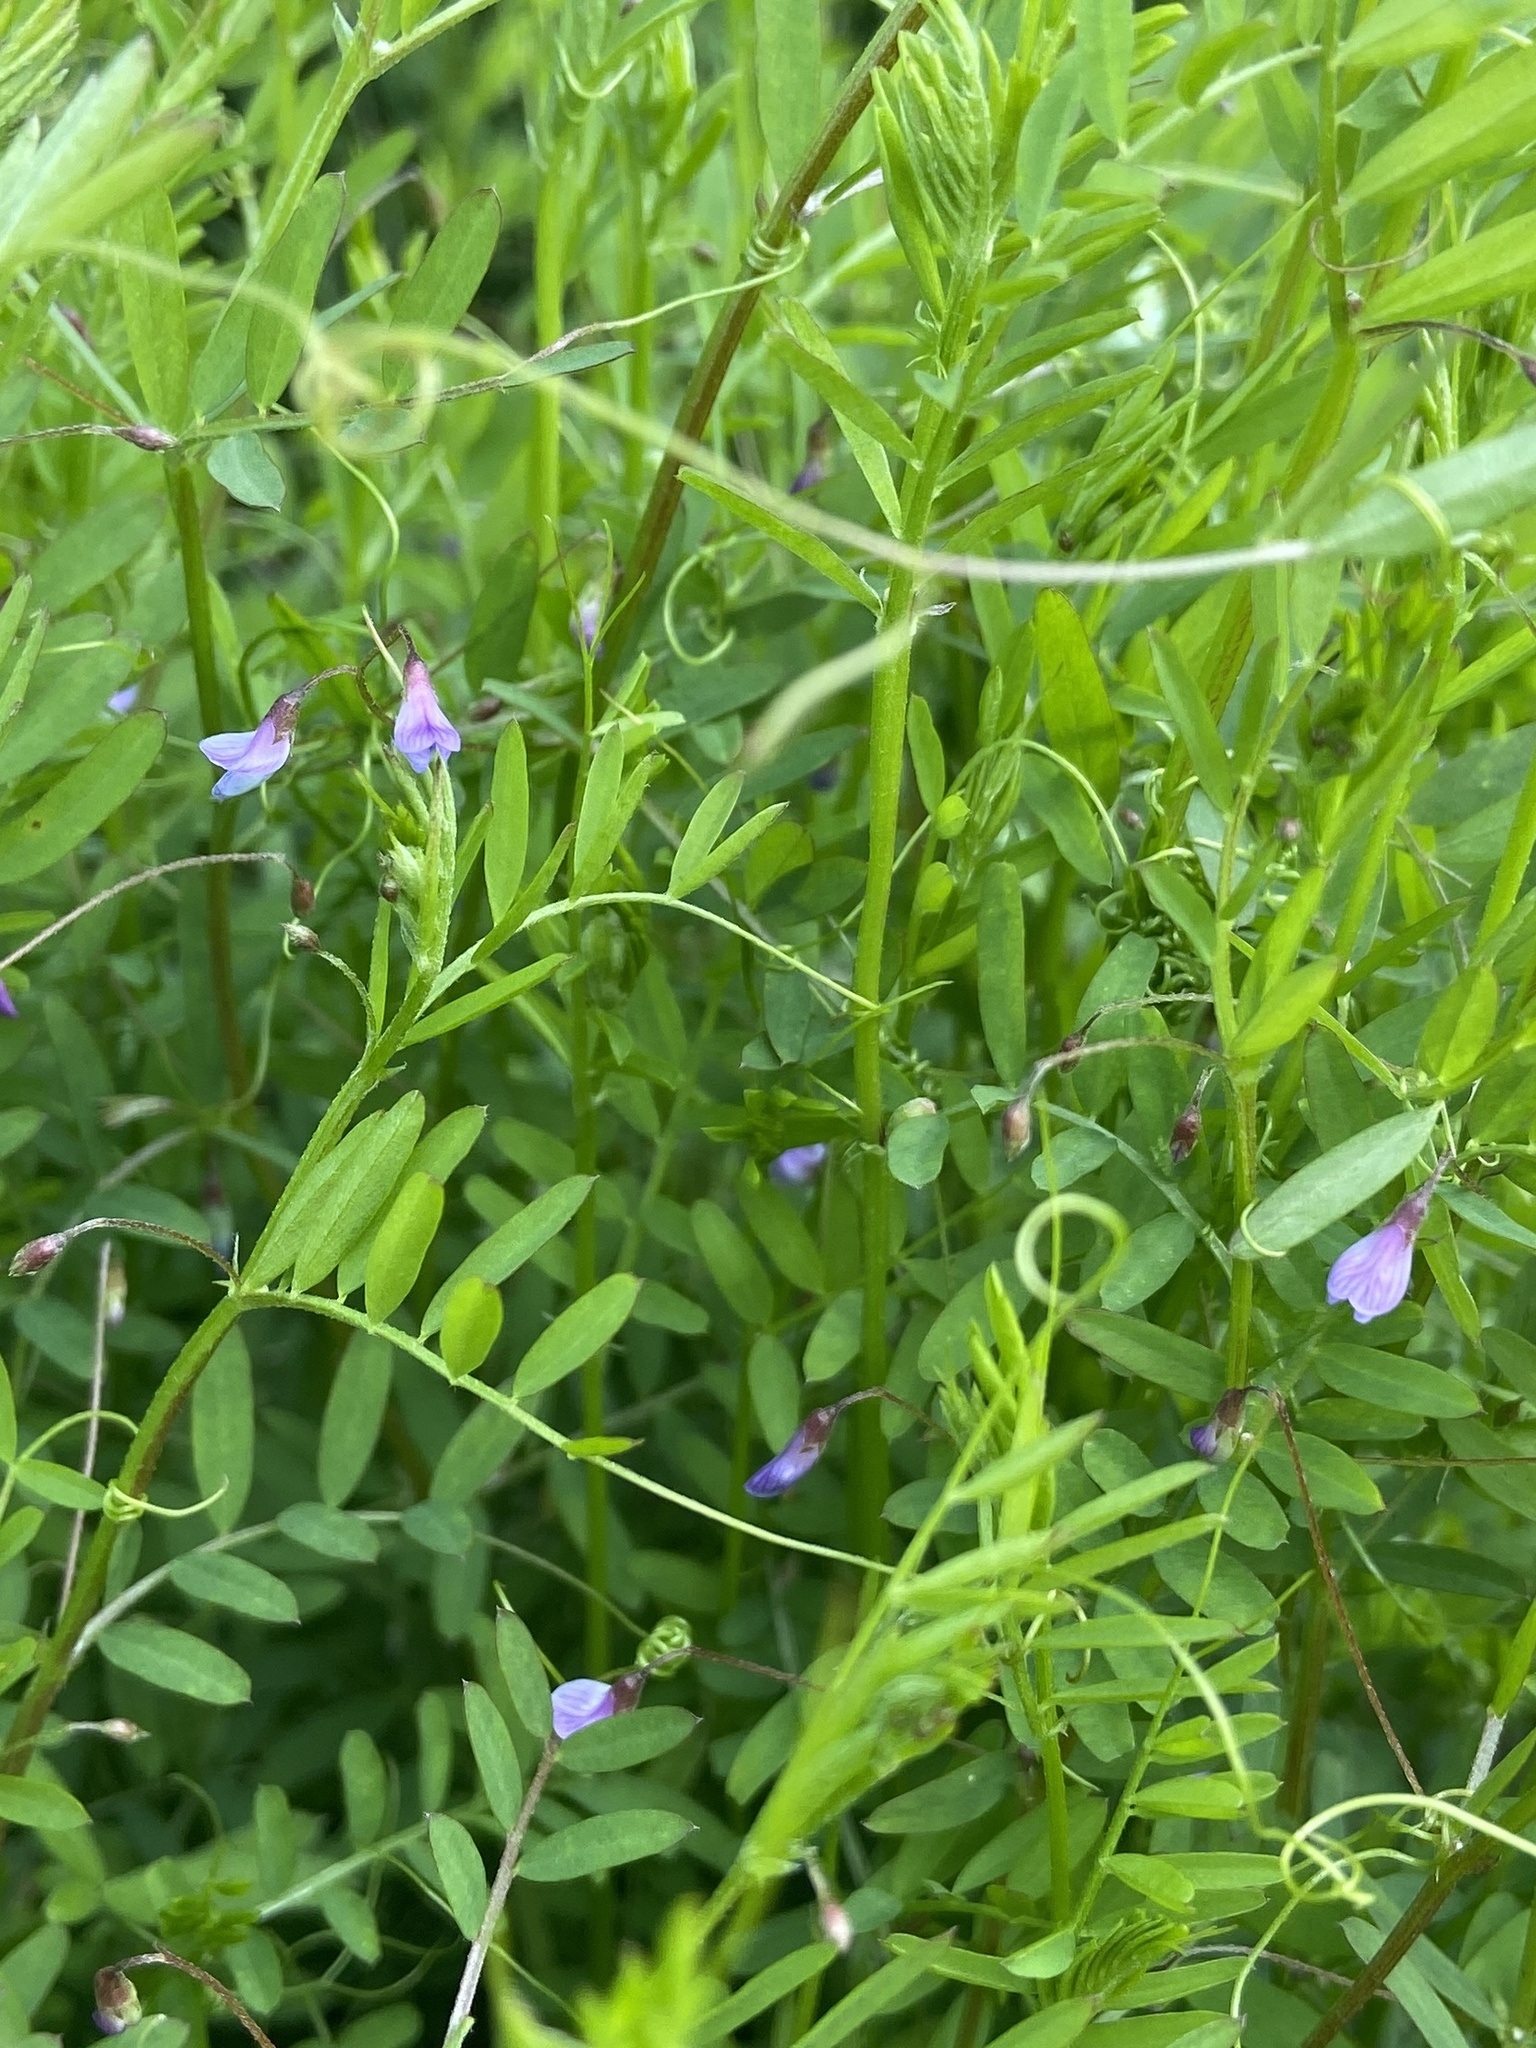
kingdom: Plantae
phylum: Tracheophyta
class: Magnoliopsida
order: Fabales
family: Fabaceae
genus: Vicia
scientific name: Vicia tetrasperma
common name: Smooth tare
